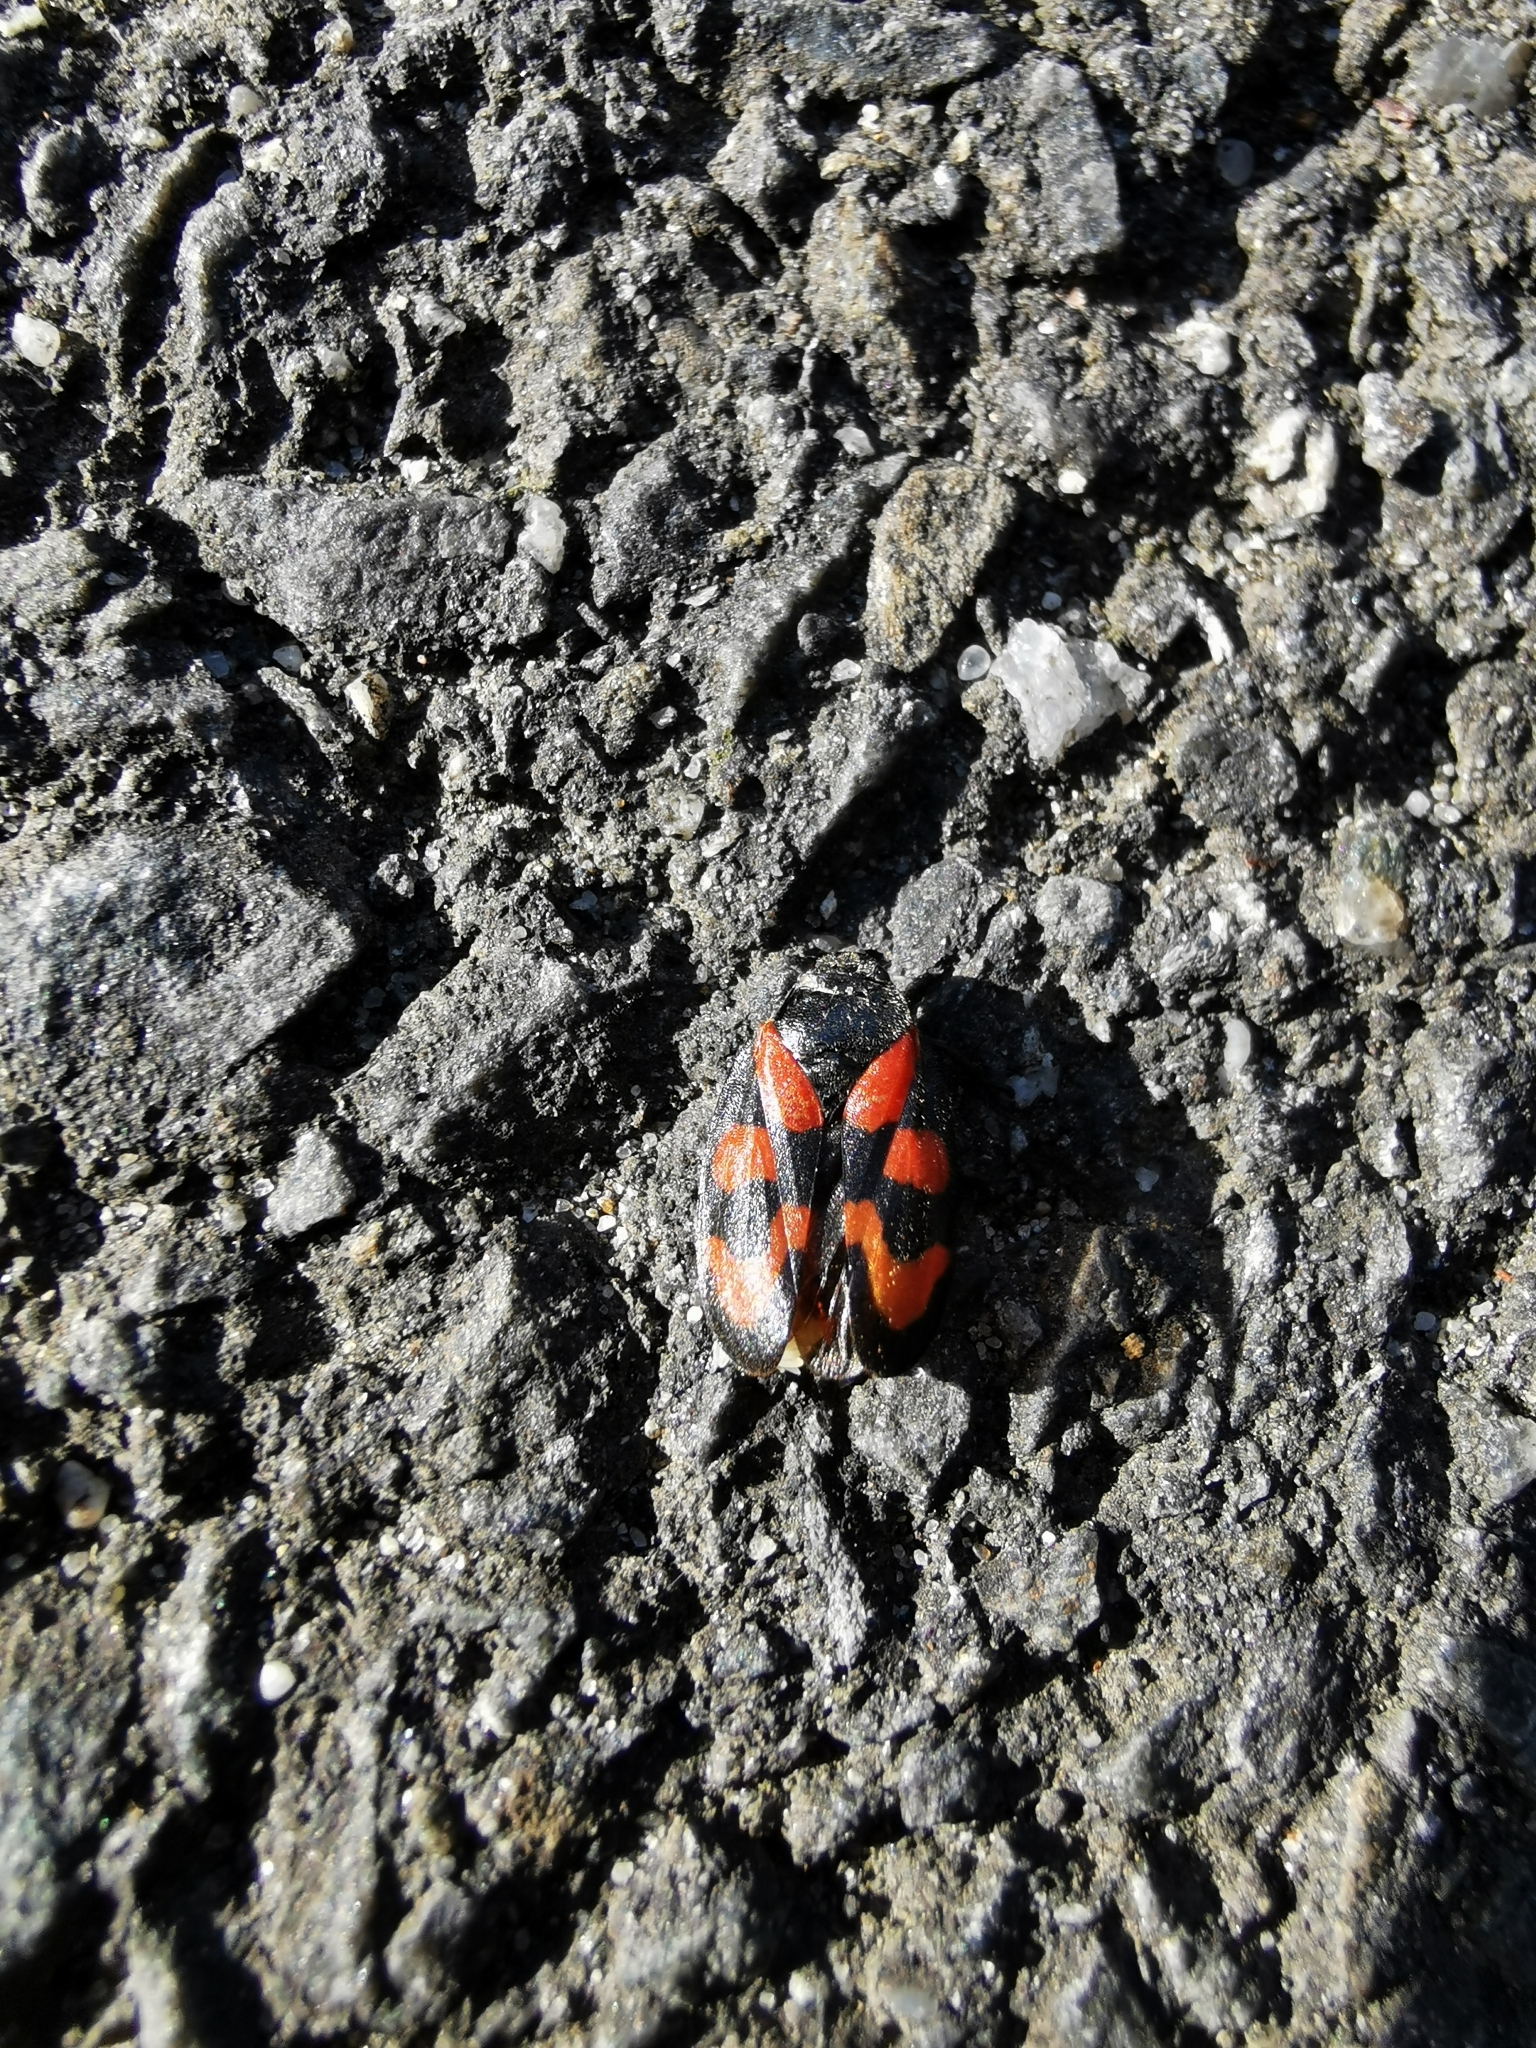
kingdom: Animalia
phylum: Arthropoda
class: Insecta
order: Hemiptera
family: Cercopidae
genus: Cercopis
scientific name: Cercopis vulnerata
